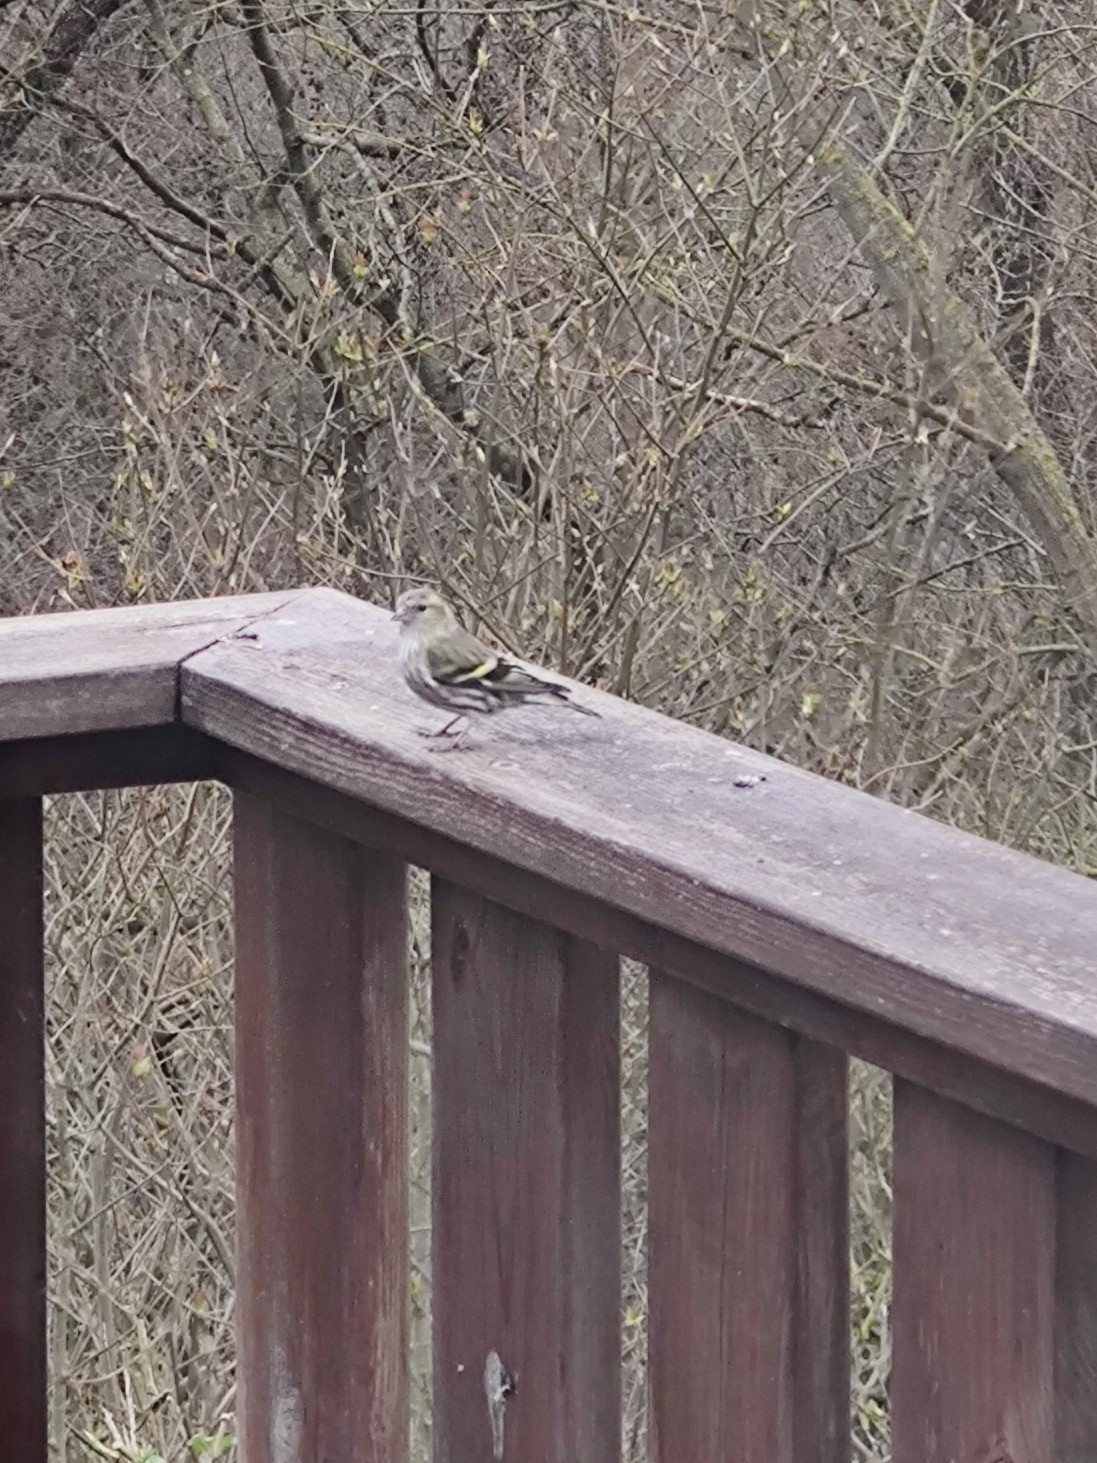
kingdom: Animalia
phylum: Chordata
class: Aves
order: Passeriformes
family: Fringillidae
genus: Spinus
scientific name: Spinus spinus
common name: Eurasian siskin
